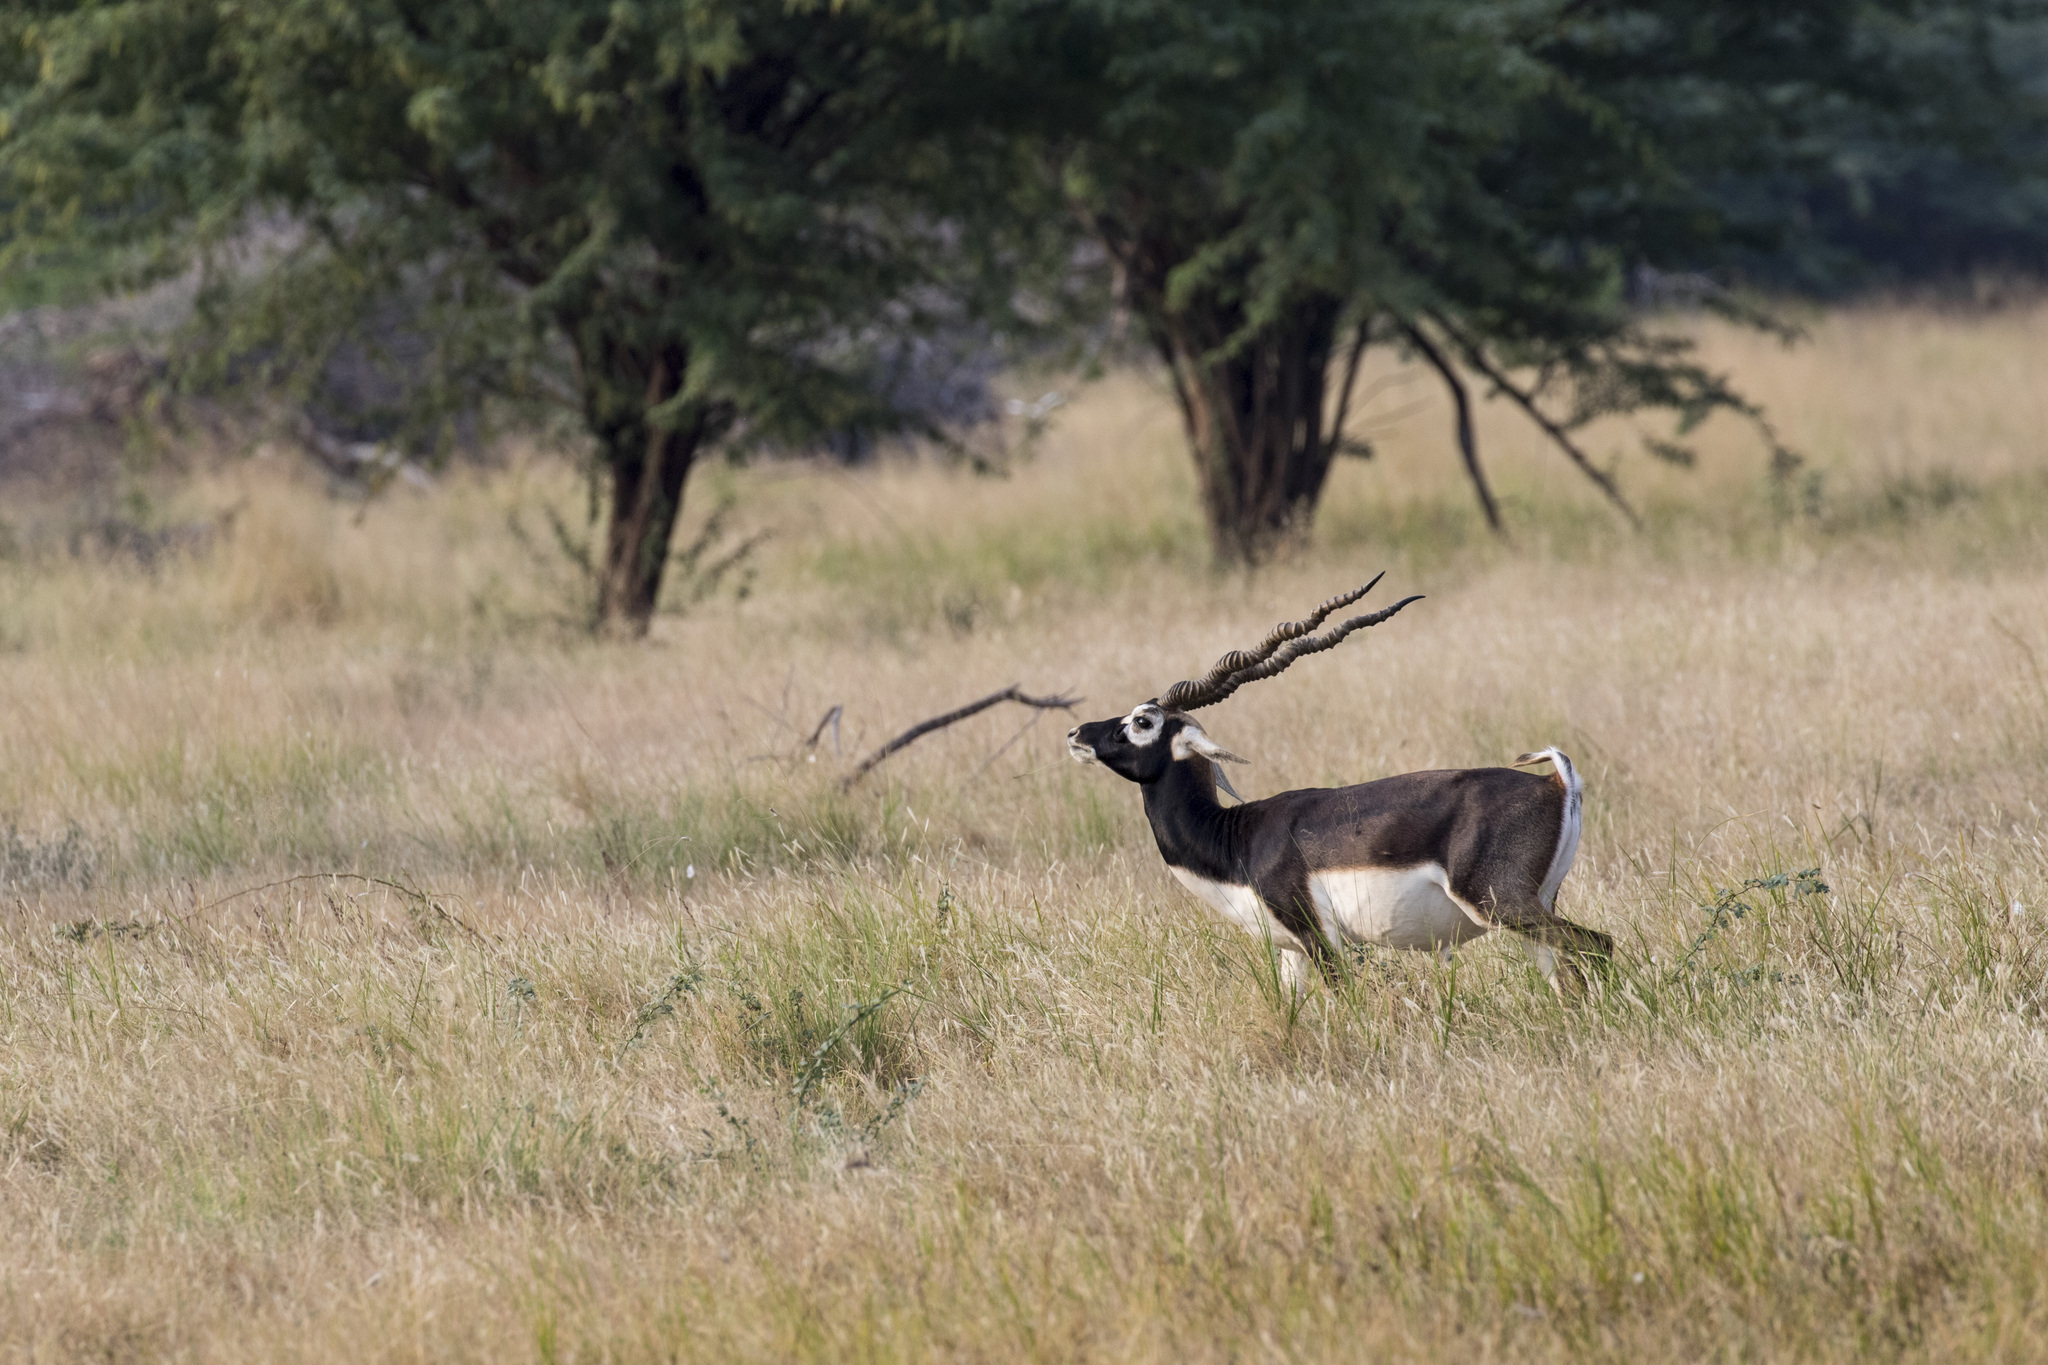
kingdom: Animalia
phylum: Chordata
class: Mammalia
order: Artiodactyla
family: Bovidae
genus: Antilope
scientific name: Antilope cervicapra
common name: Blackbuck
